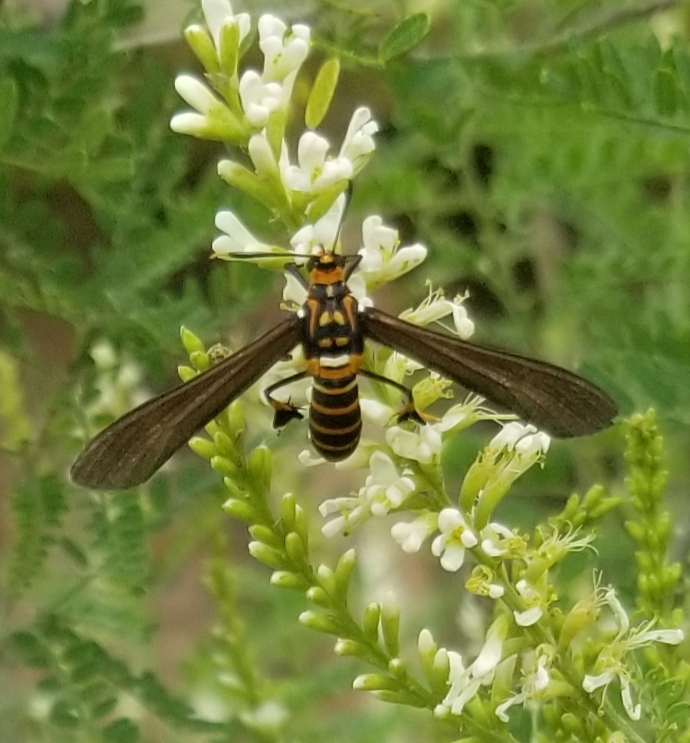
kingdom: Animalia
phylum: Arthropoda
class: Insecta
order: Lepidoptera
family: Erebidae
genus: Horama
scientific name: Horama panthalon
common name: Texas wasp moth
